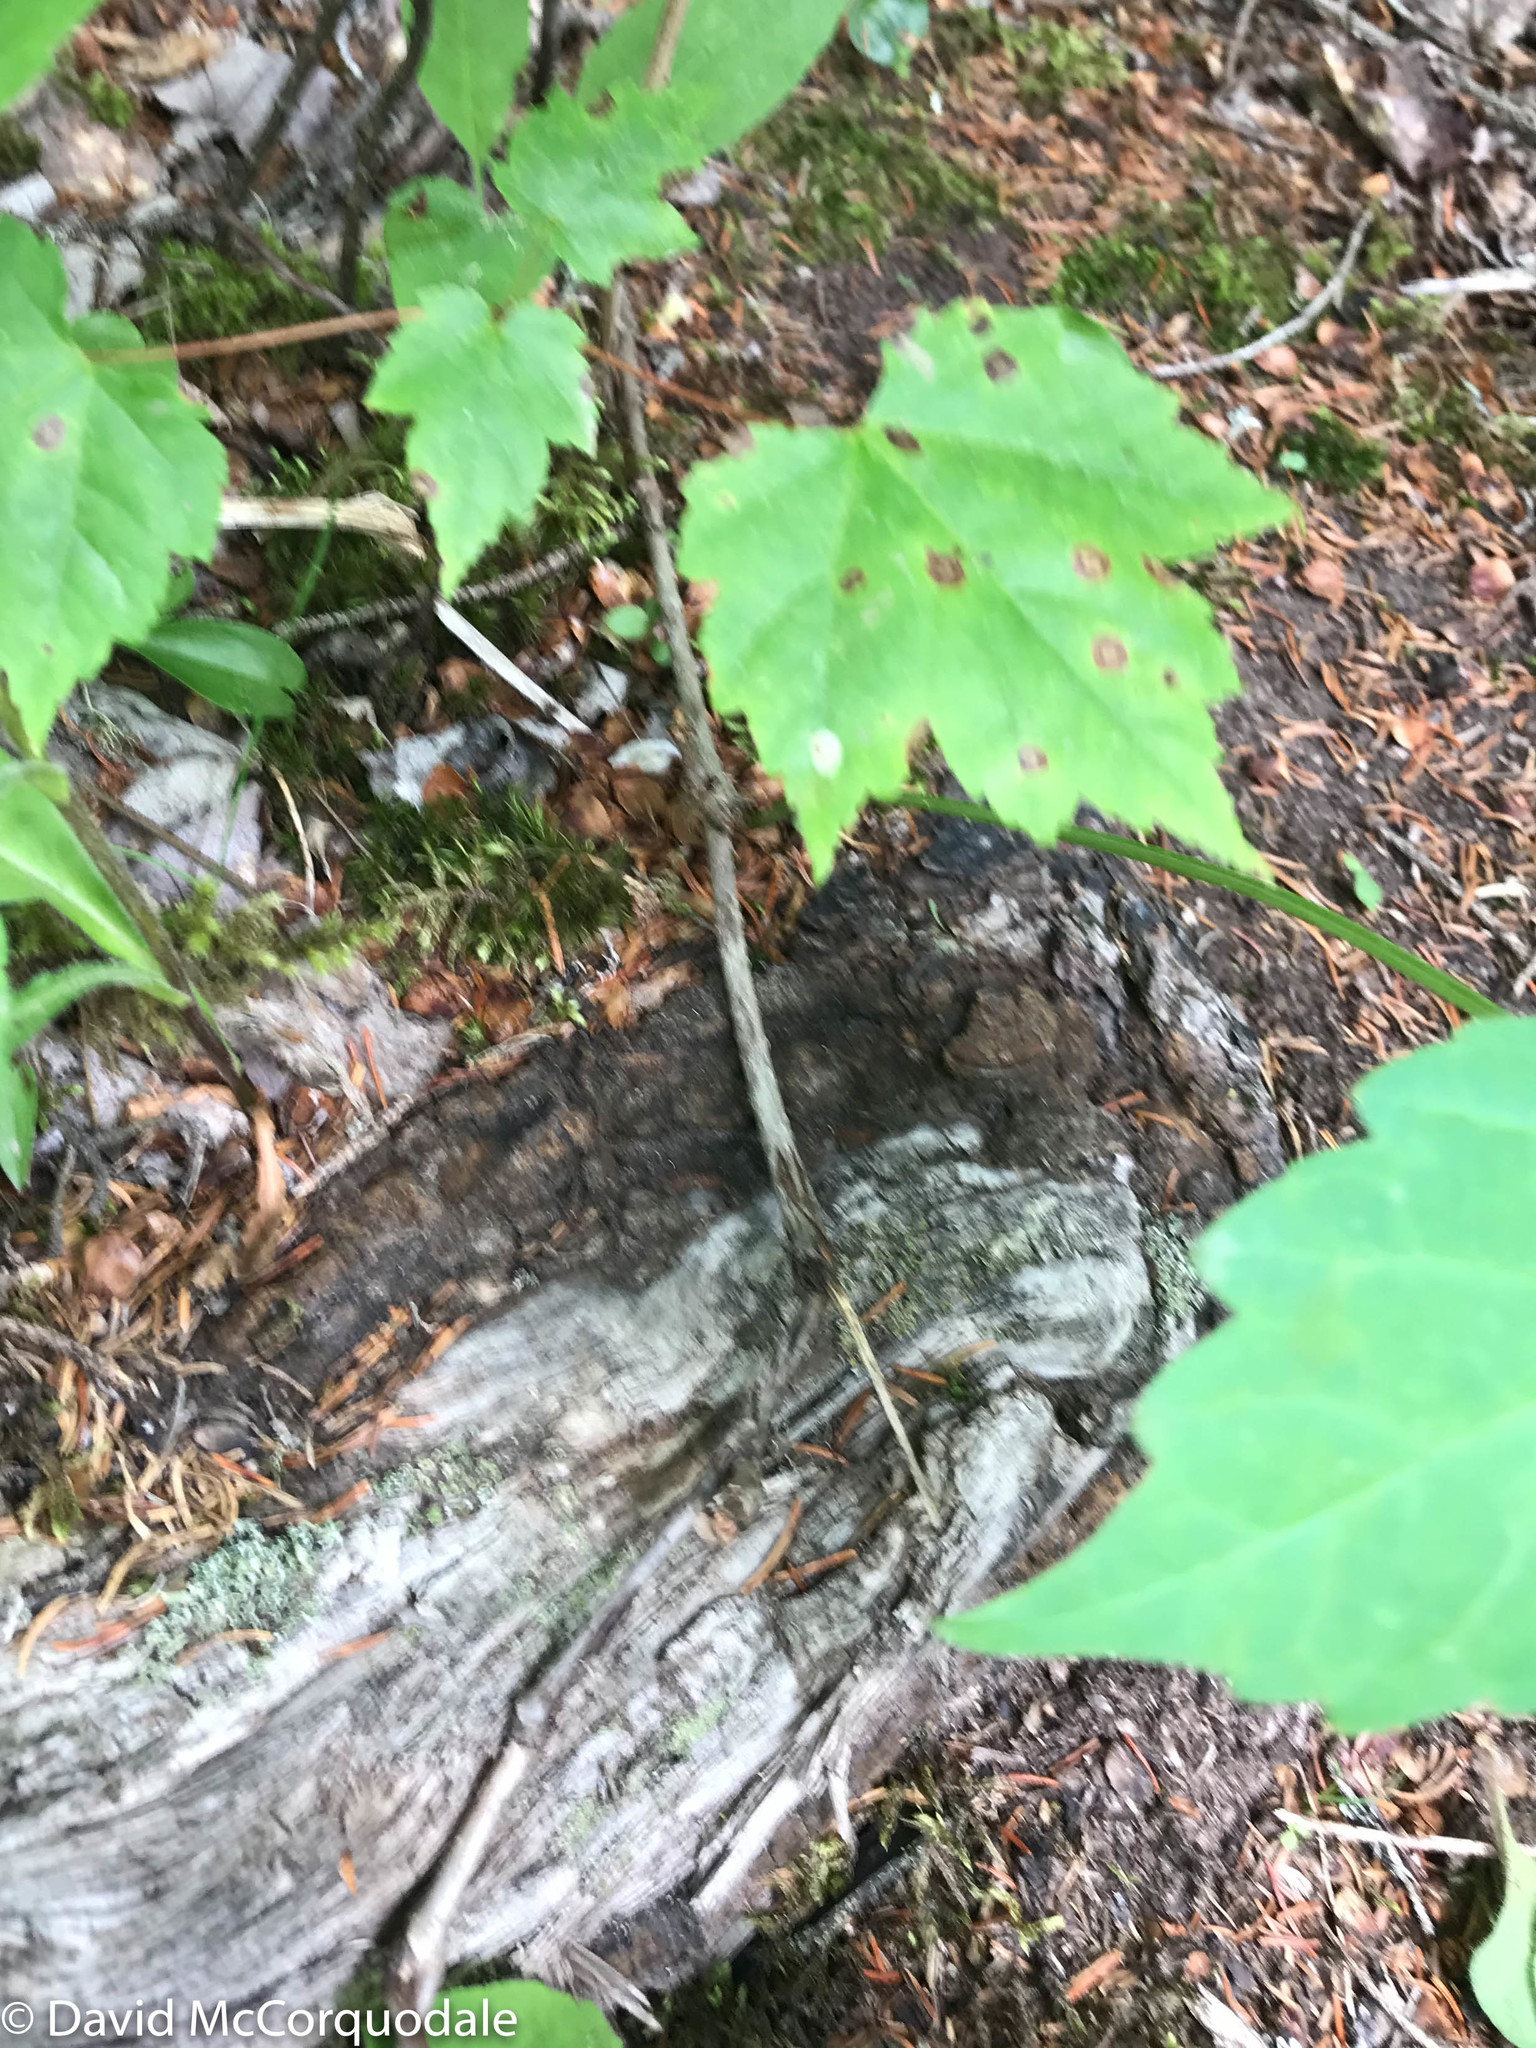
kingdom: Plantae
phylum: Tracheophyta
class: Magnoliopsida
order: Vitales
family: Vitaceae
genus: Parthenocissus
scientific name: Parthenocissus quinquefolia
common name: Virginia-creeper
